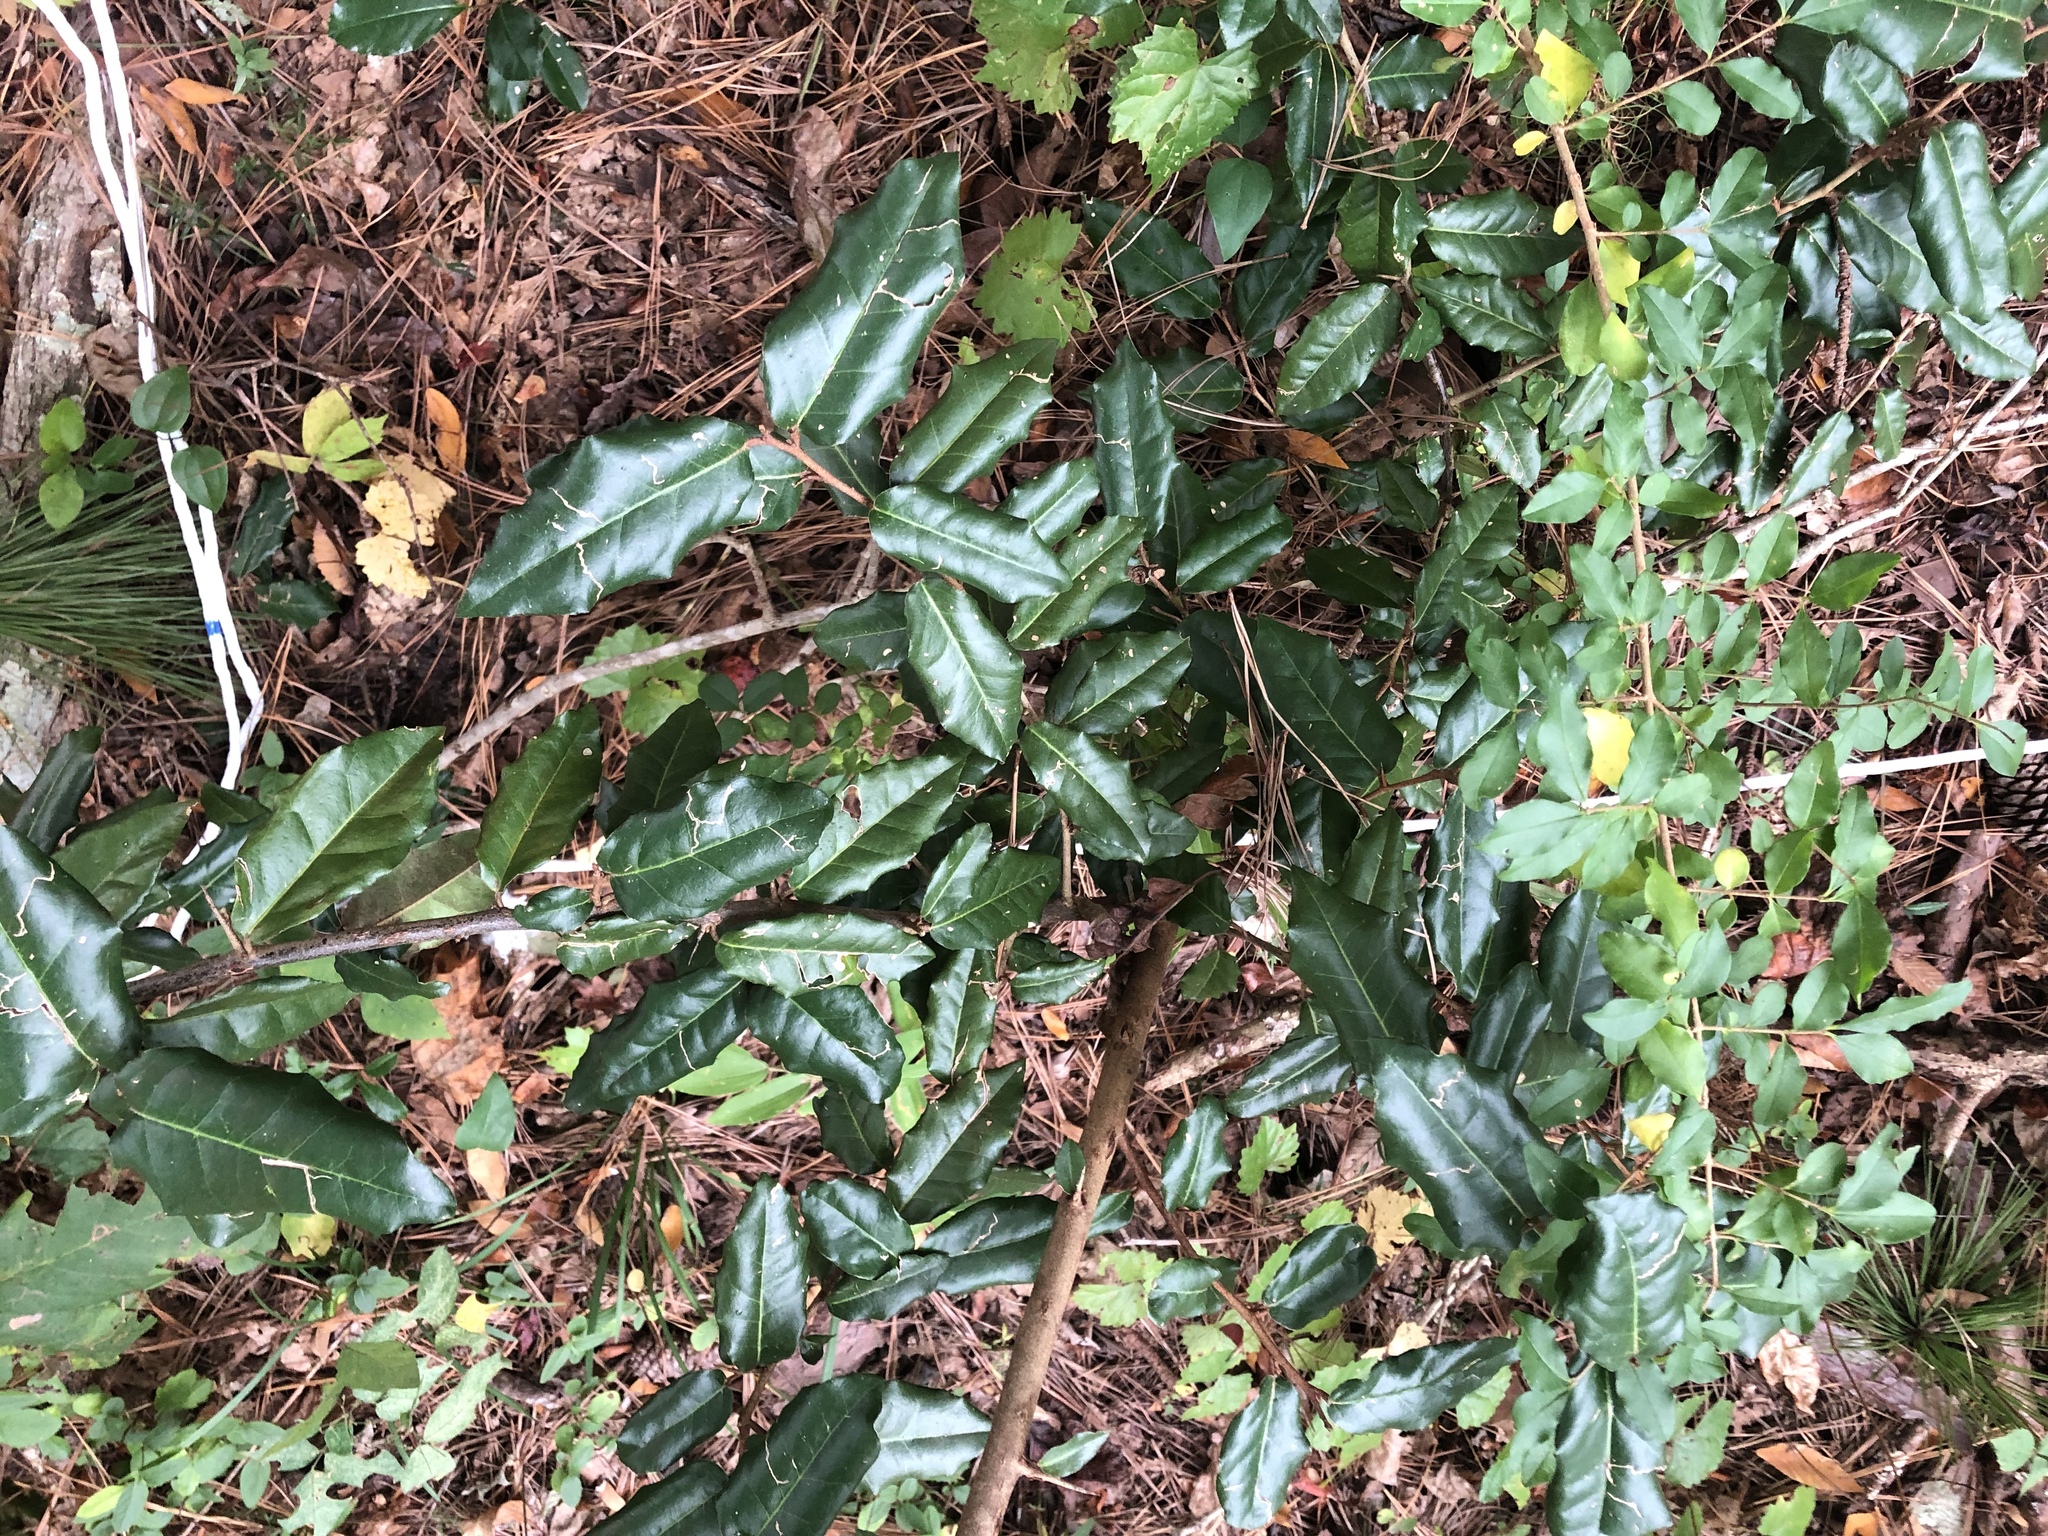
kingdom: Plantae
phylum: Tracheophyta
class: Magnoliopsida
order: Rosales
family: Elaeagnaceae
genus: Elaeagnus
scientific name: Elaeagnus pungens
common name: Spiny oleaster
